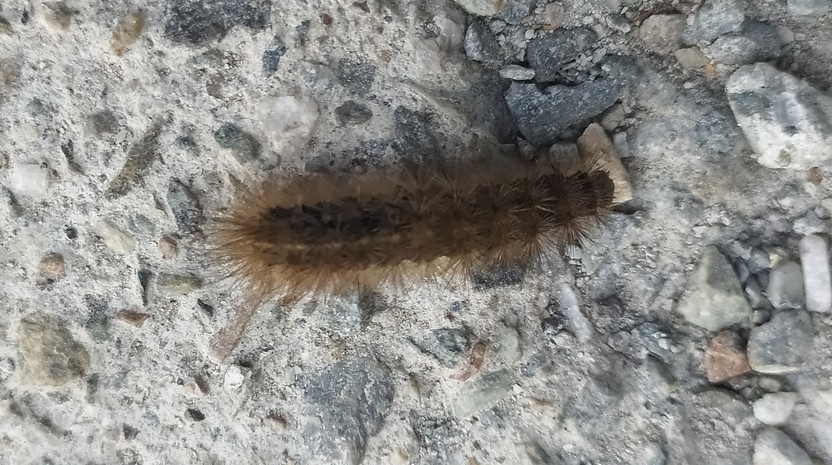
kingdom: Animalia
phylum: Arthropoda
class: Insecta
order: Lepidoptera
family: Erebidae
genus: Phragmatobia
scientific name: Phragmatobia fuliginosa
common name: Ruby tiger
